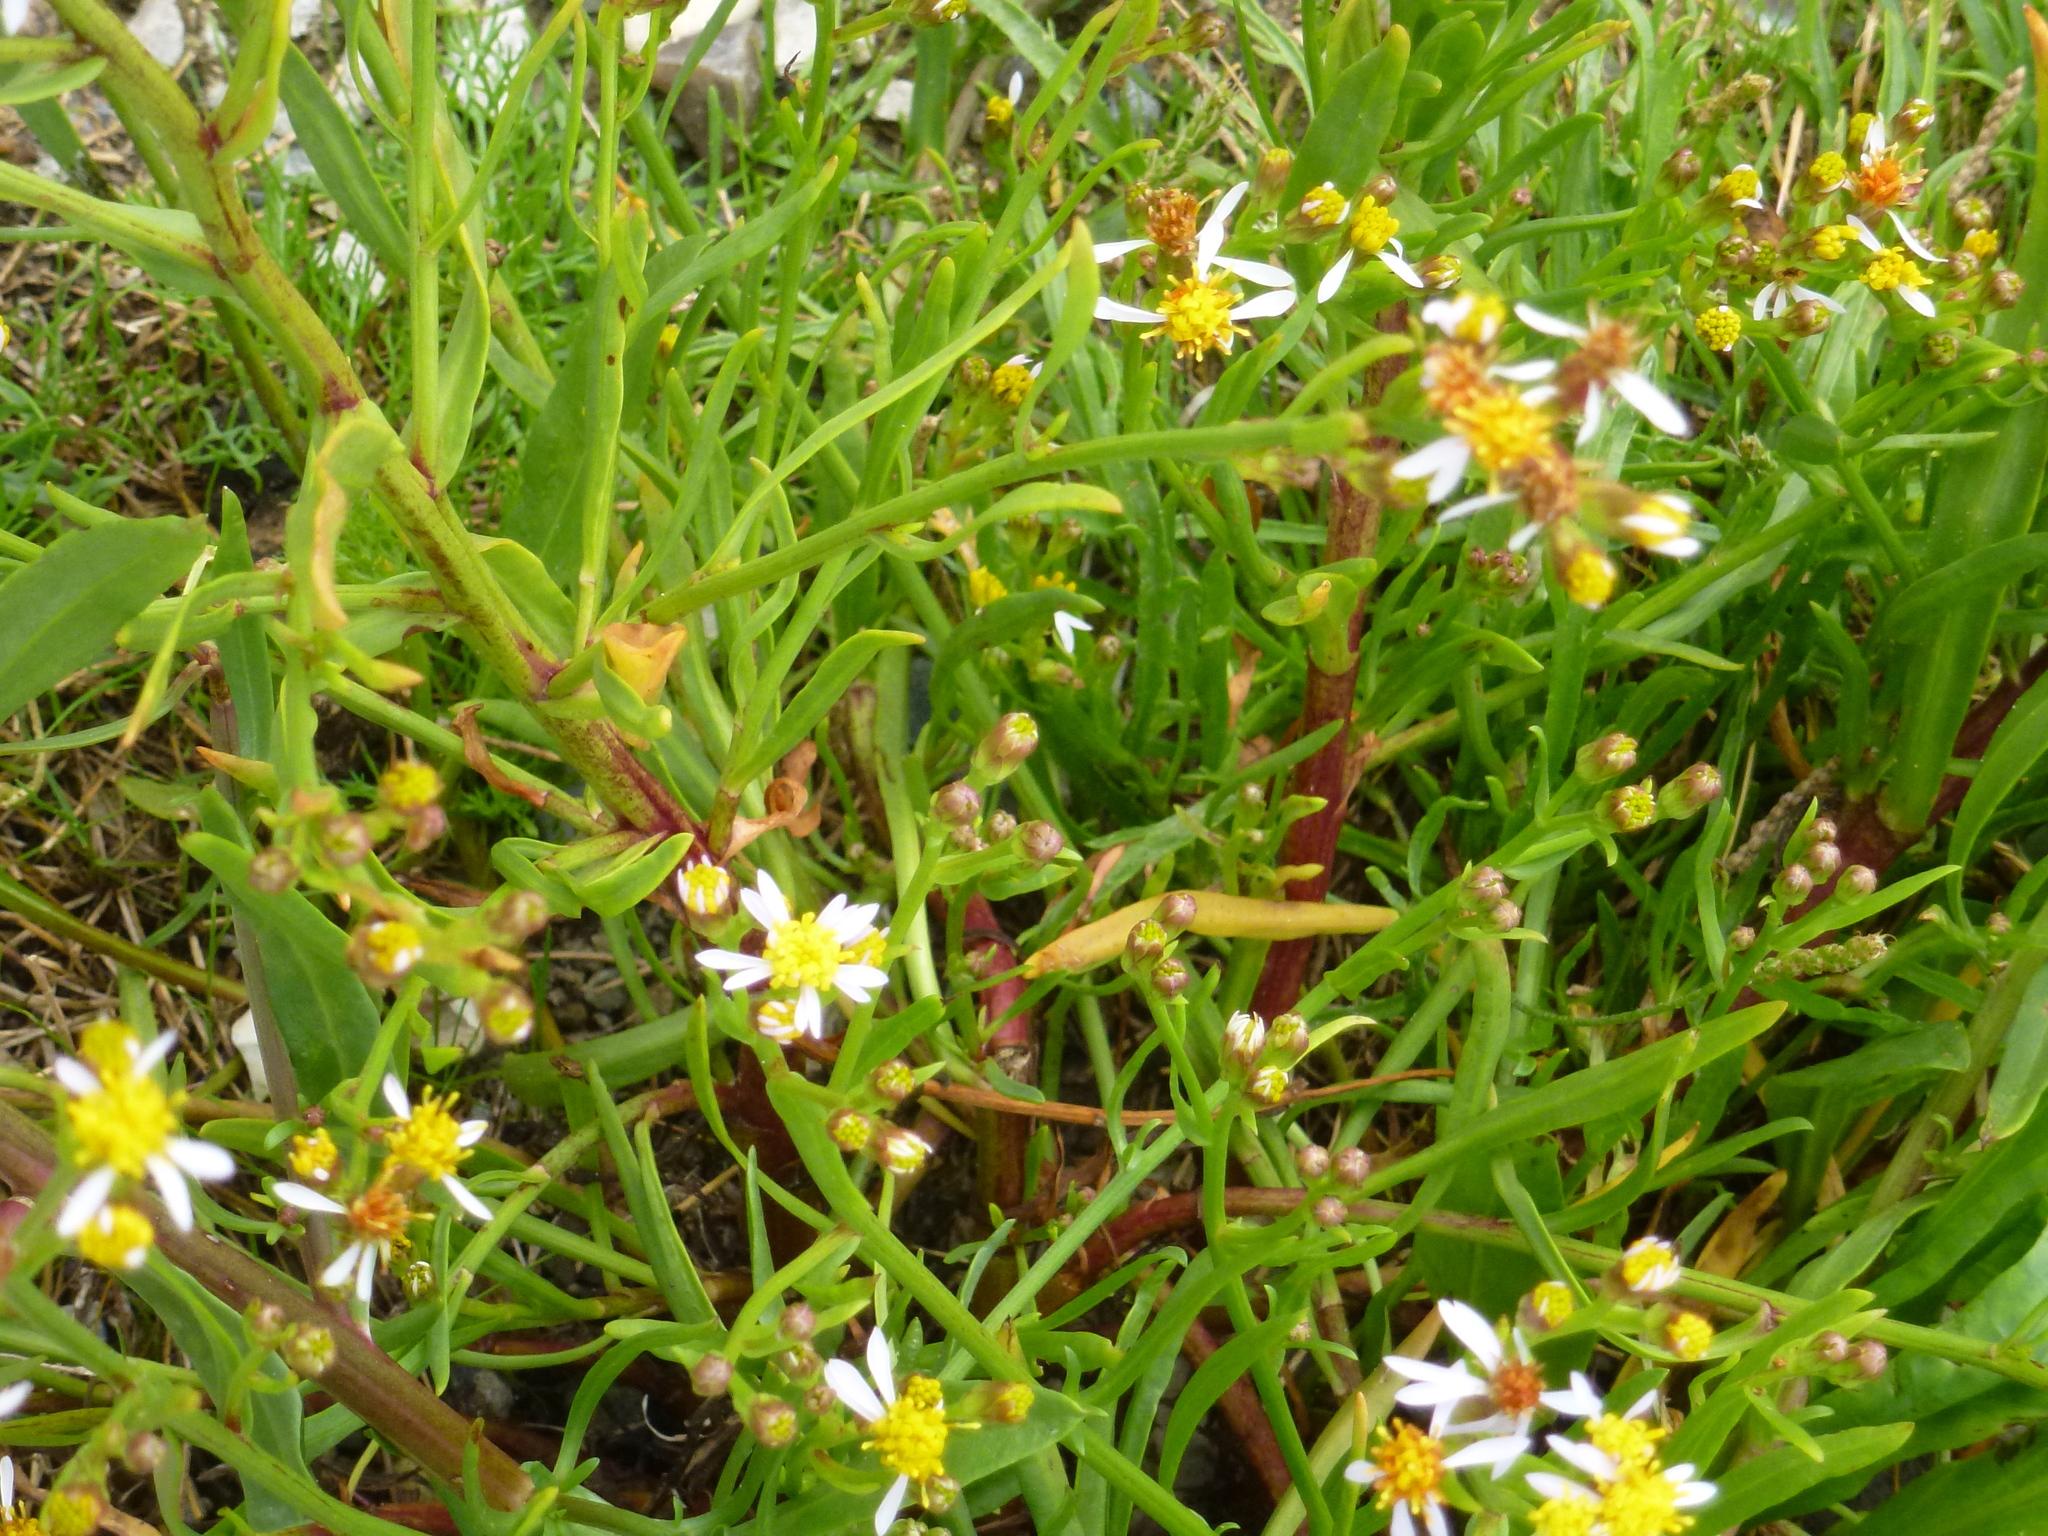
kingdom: Plantae
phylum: Tracheophyta
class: Magnoliopsida
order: Asterales
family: Asteraceae
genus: Tripolium
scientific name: Tripolium pannonicum
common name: Sea aster
